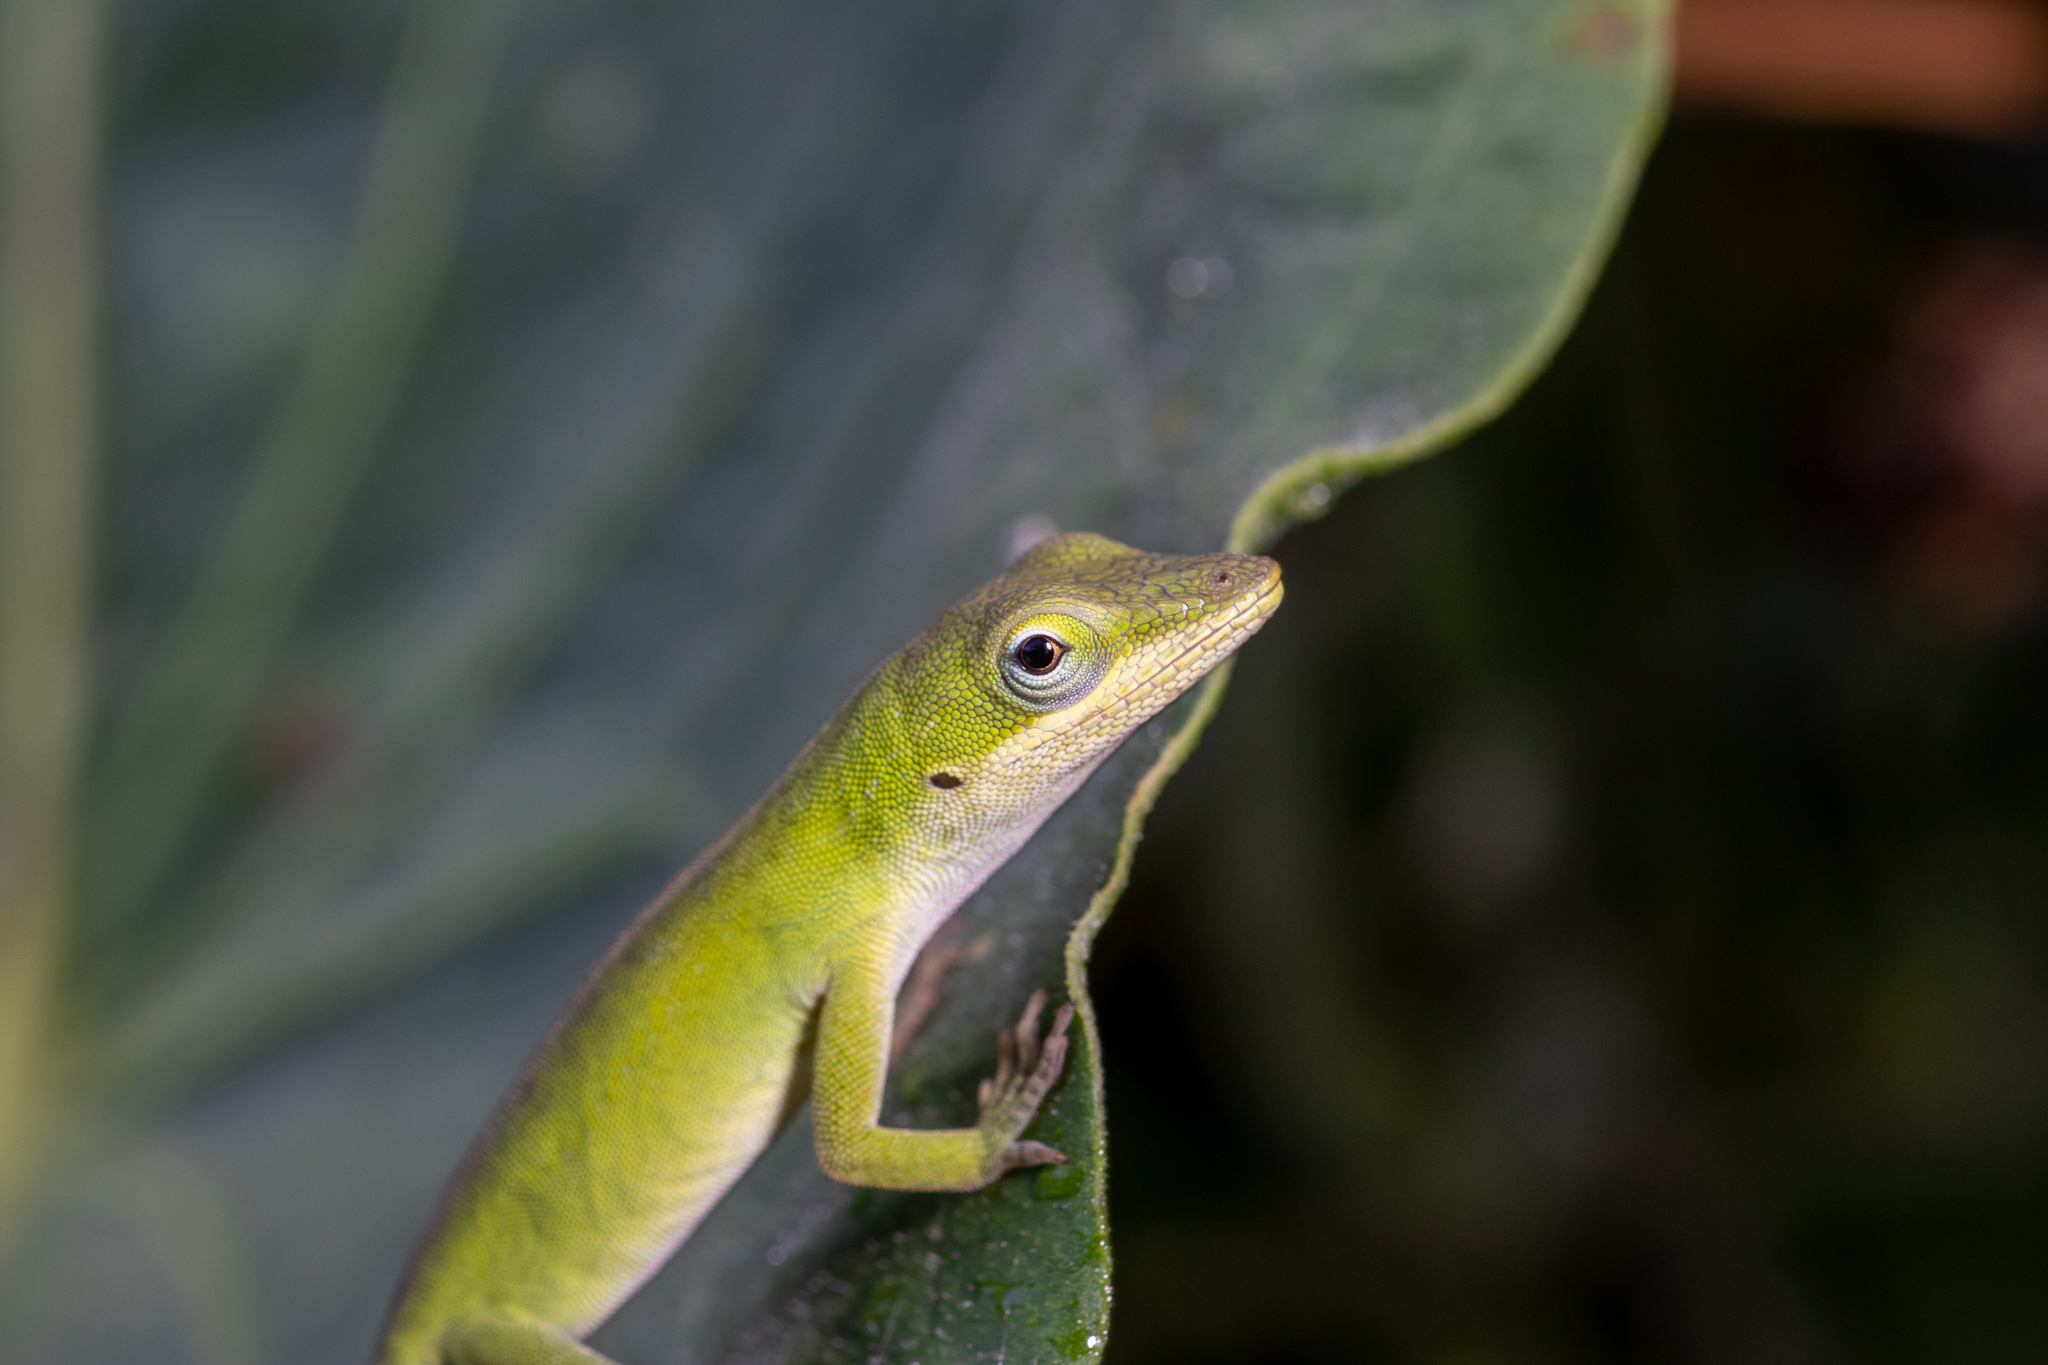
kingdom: Animalia
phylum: Chordata
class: Squamata
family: Dactyloidae
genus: Anolis
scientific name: Anolis carolinensis
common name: Green anole
